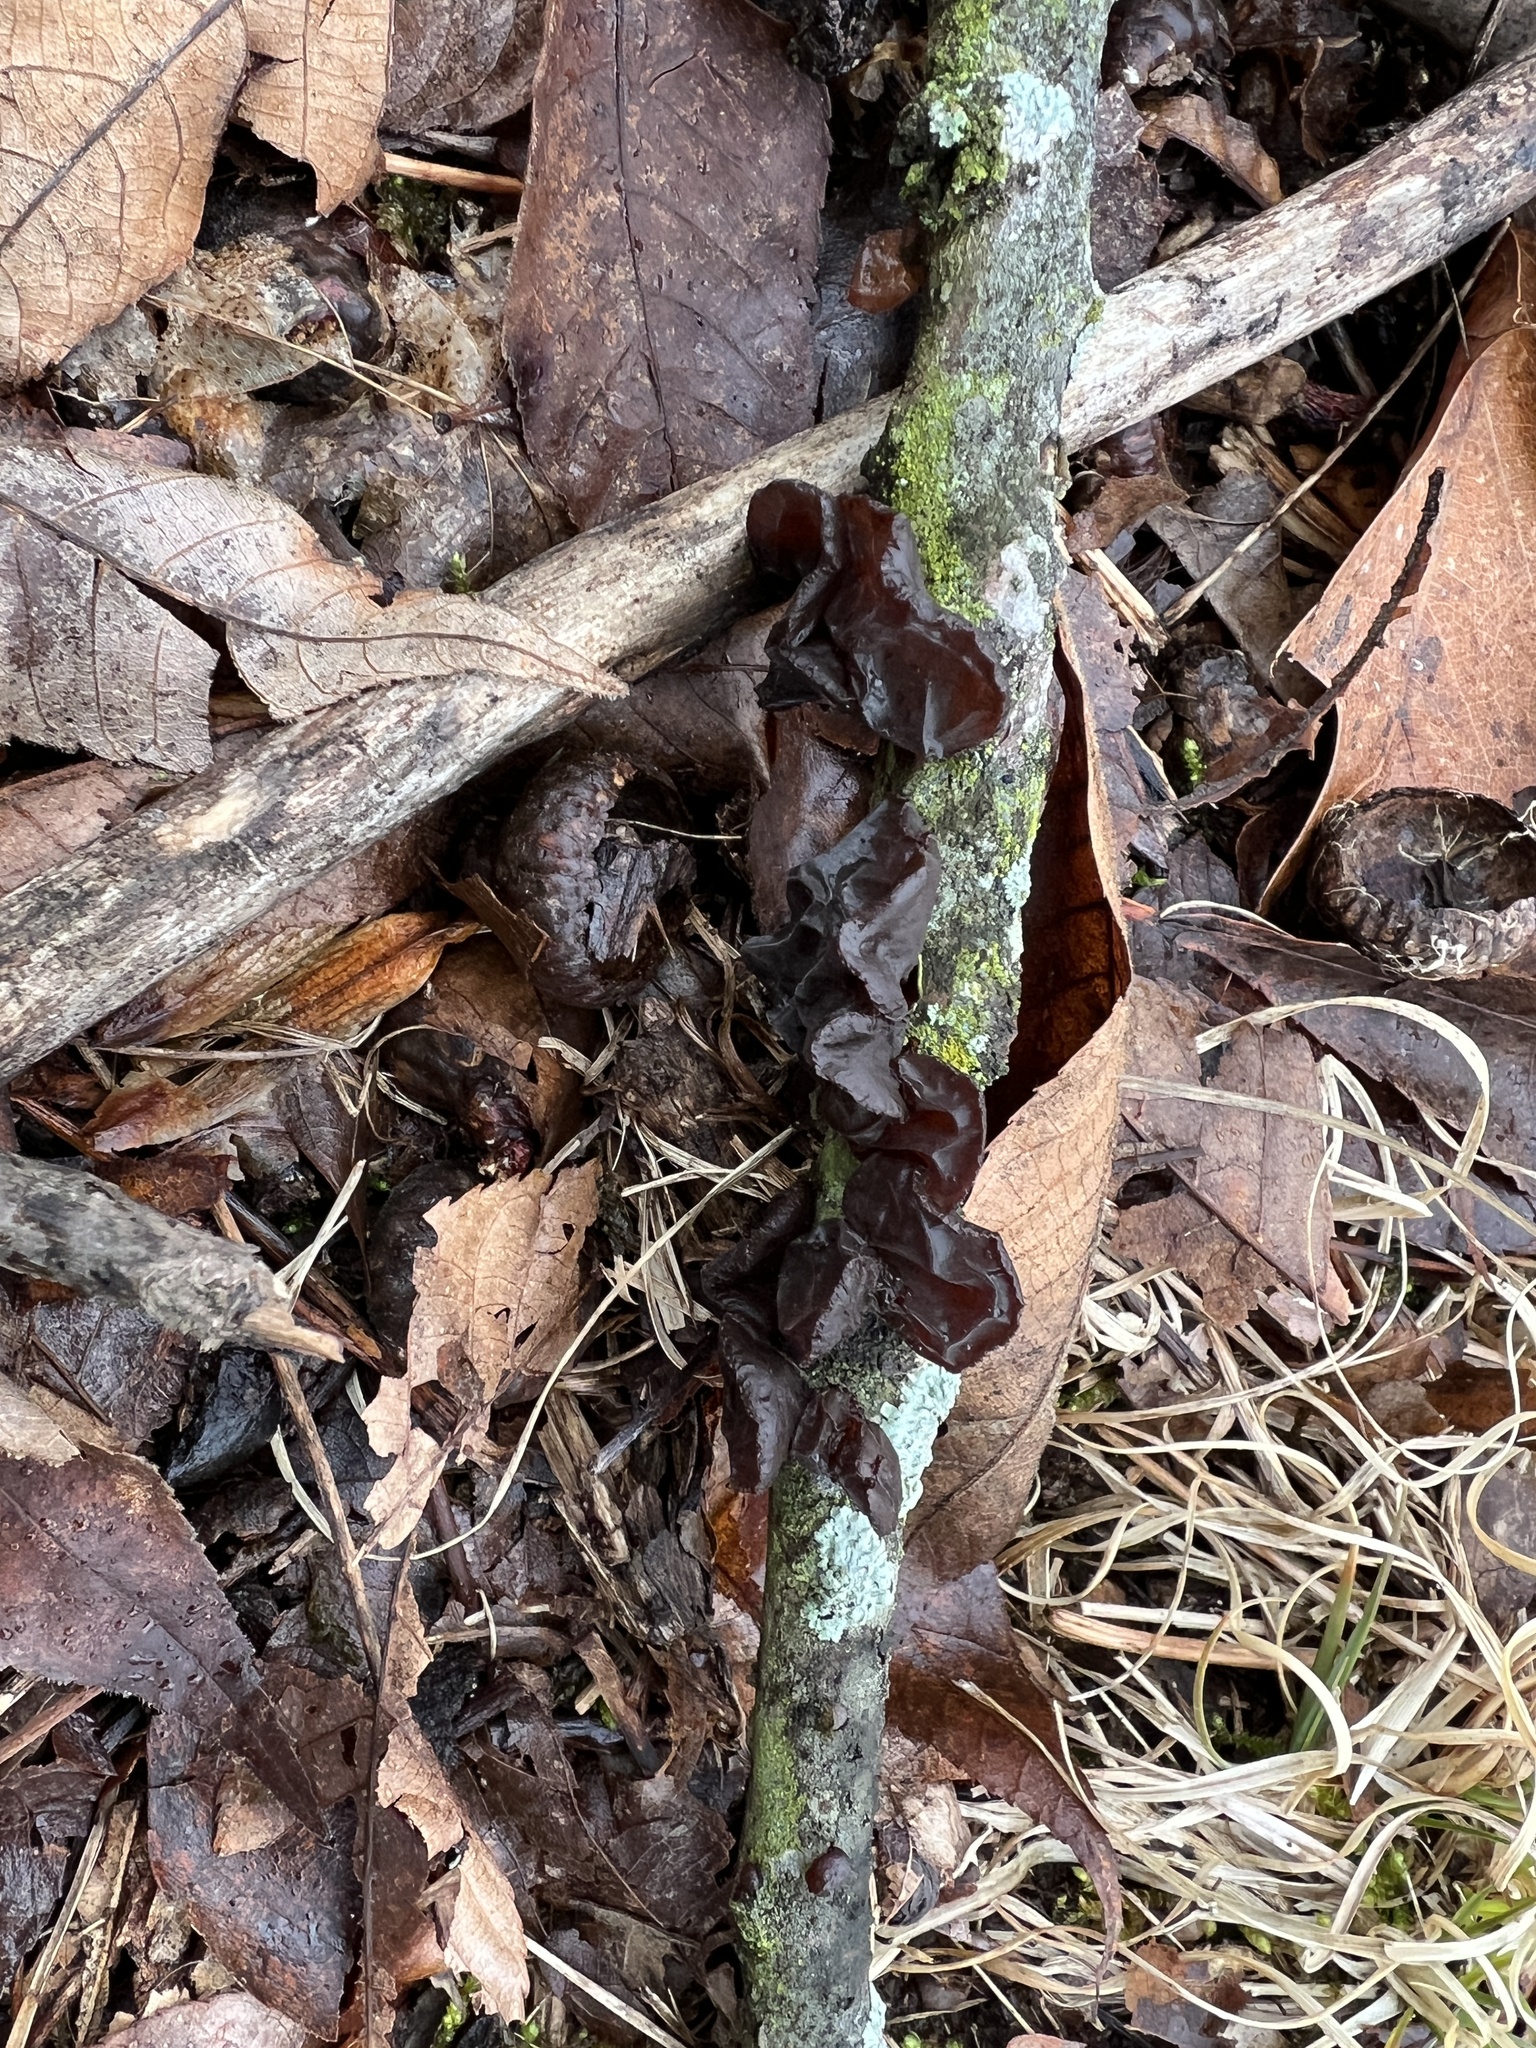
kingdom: Fungi
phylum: Basidiomycota
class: Agaricomycetes
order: Auriculariales
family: Auriculariaceae
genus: Exidia
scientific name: Exidia
